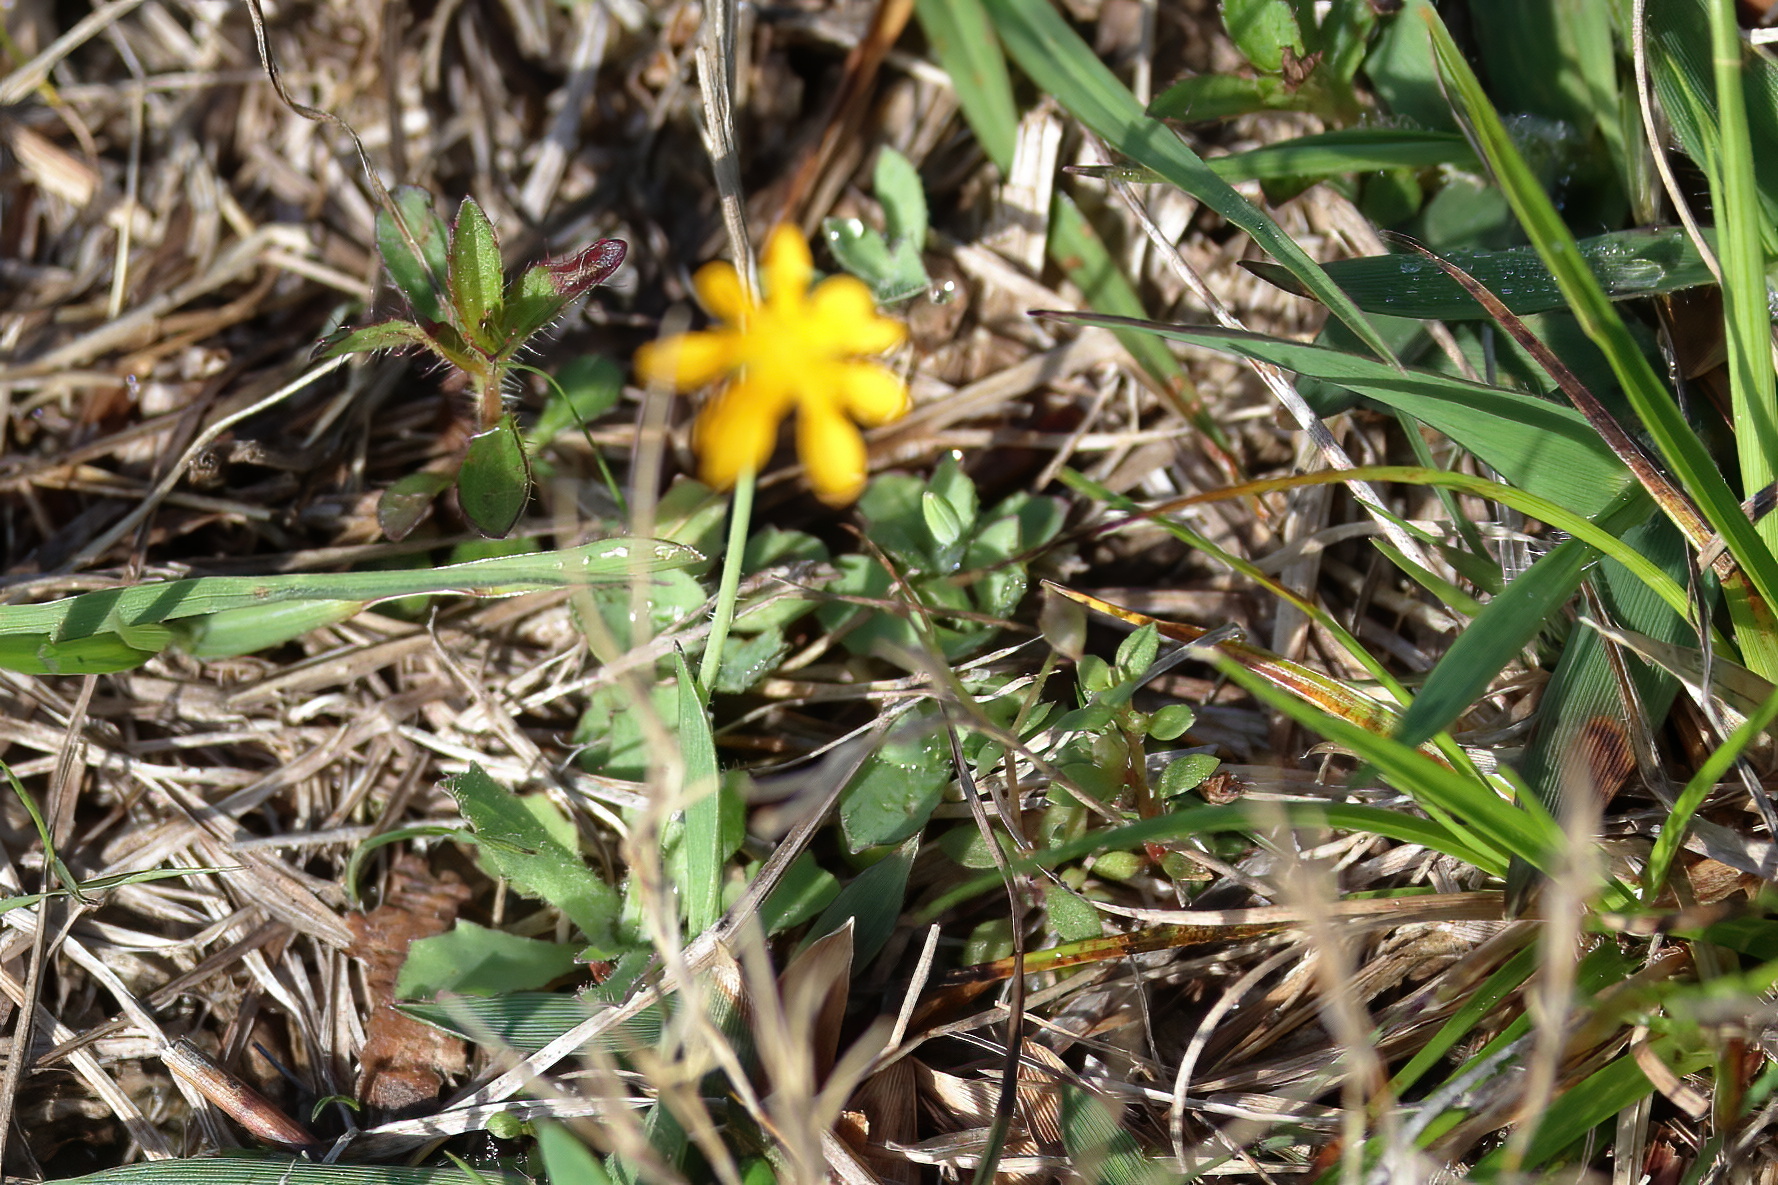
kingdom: Plantae
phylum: Tracheophyta
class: Magnoliopsida
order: Asterales
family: Asteraceae
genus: Krigia
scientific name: Krigia virginica
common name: Virginia dwarf-dandelion
